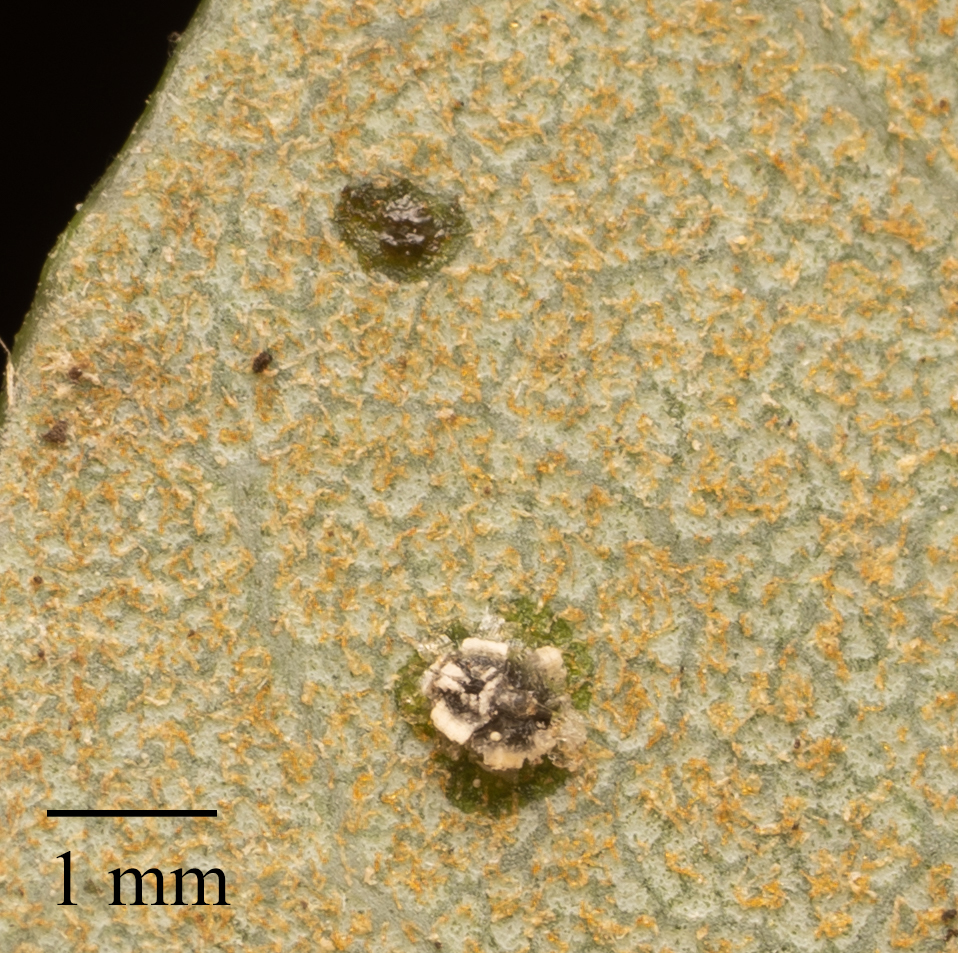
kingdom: Animalia
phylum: Arthropoda
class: Insecta
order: Hemiptera
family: Aleyrodidae
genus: Aleuroplatus
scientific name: Aleuroplatus coronata
